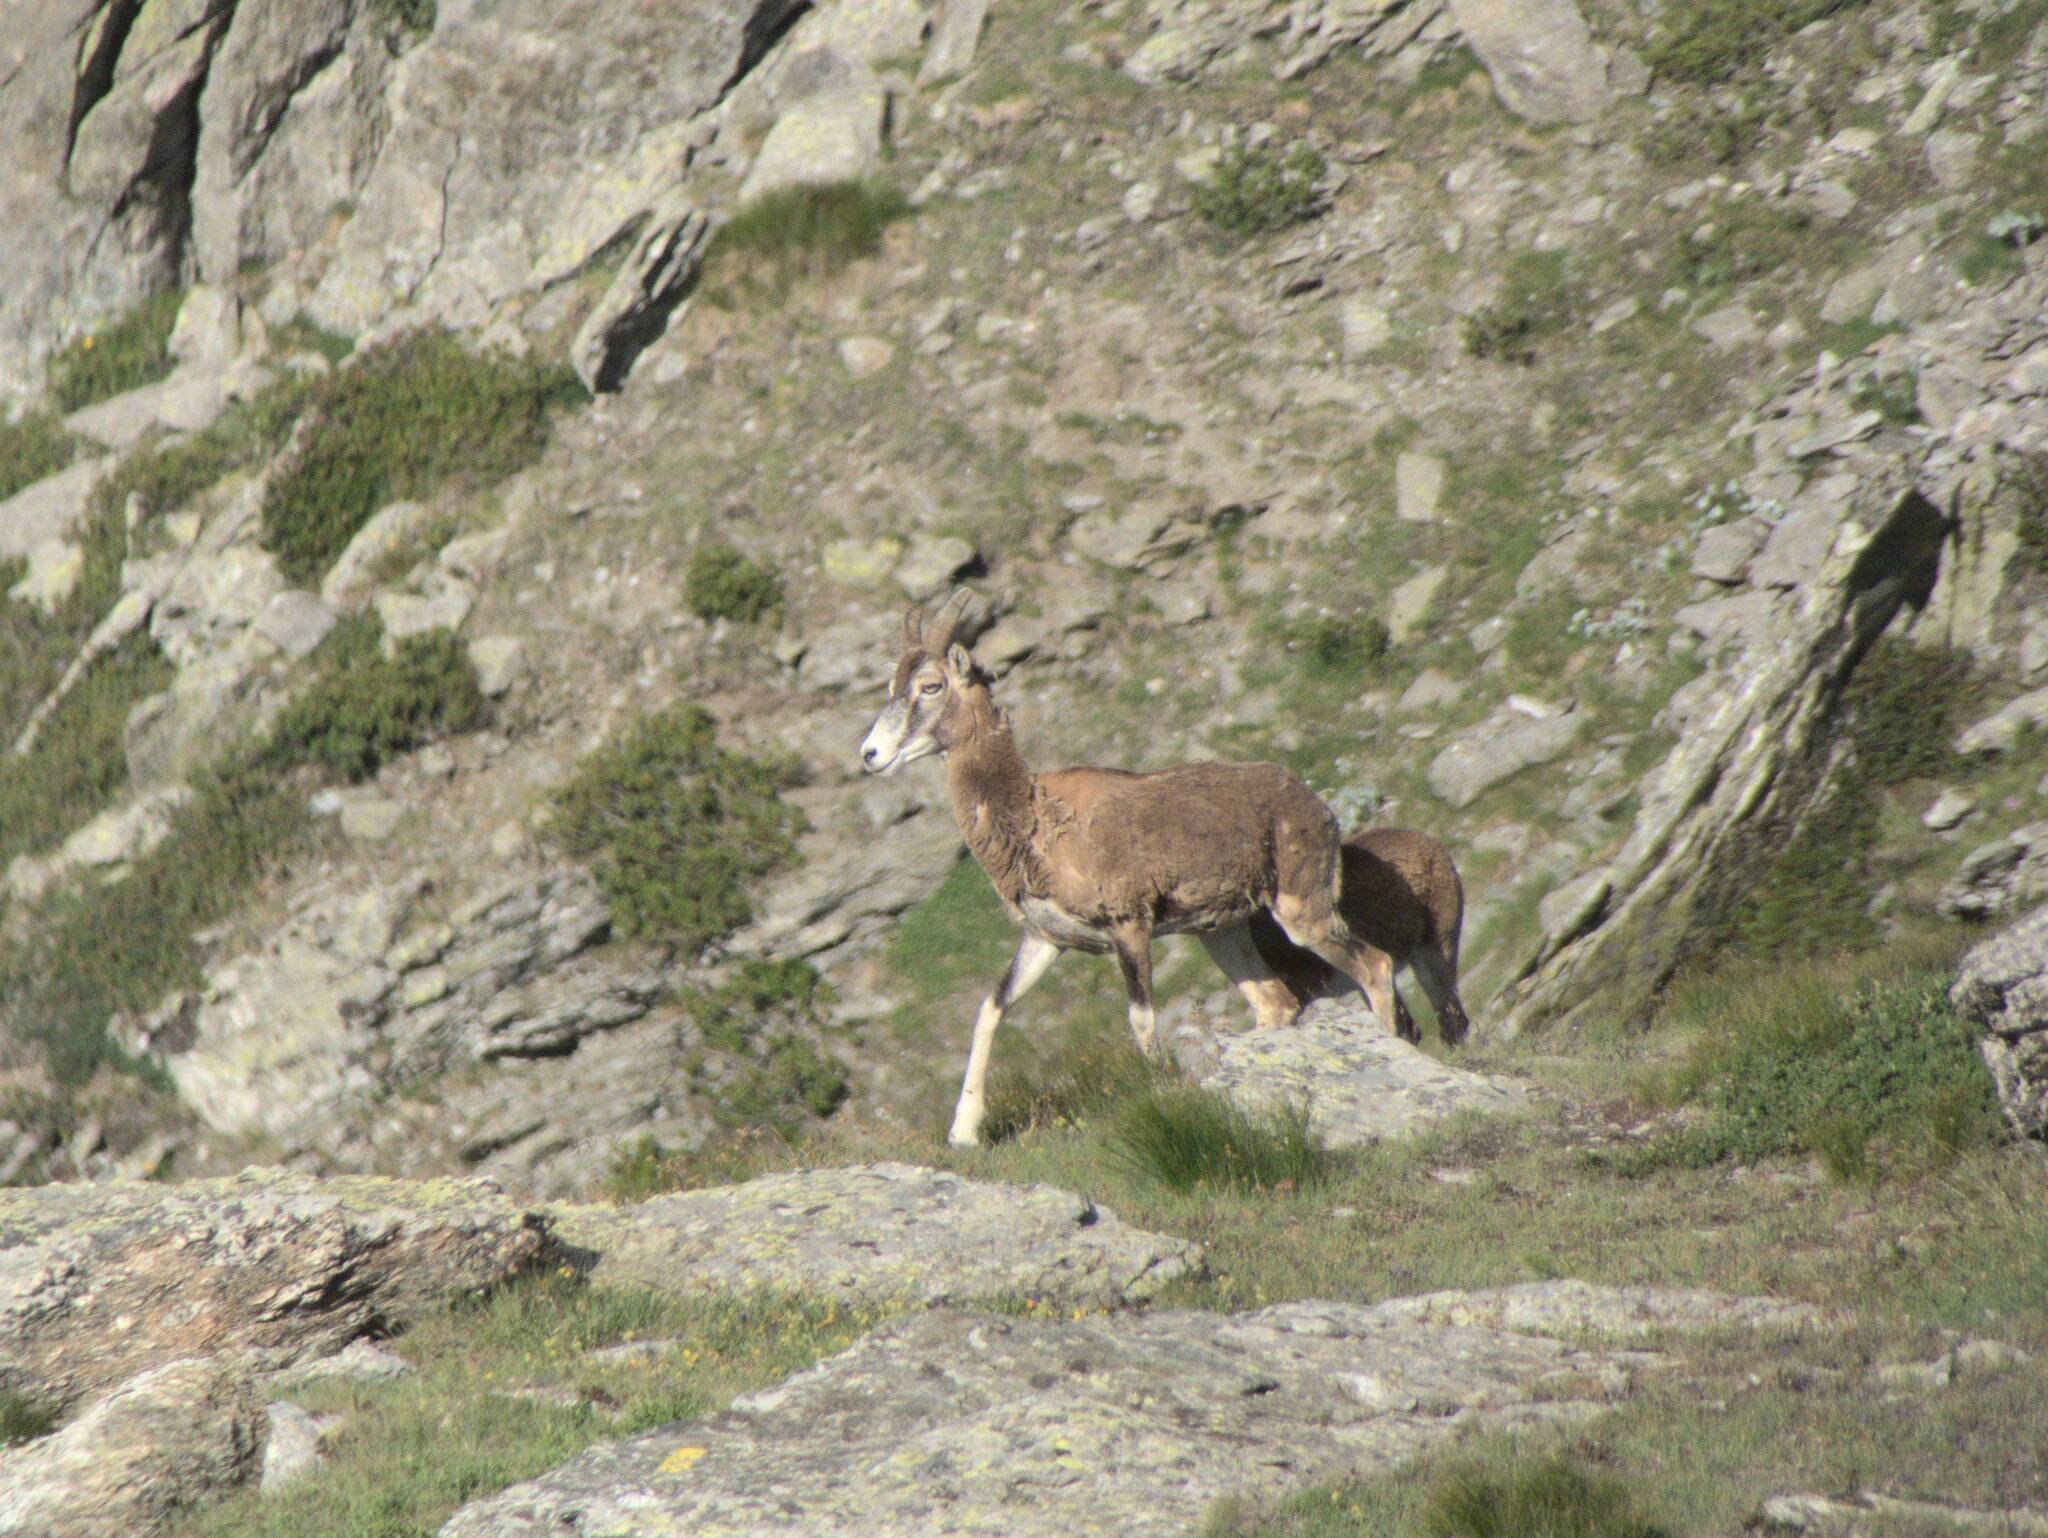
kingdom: Animalia
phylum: Chordata
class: Mammalia
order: Artiodactyla
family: Bovidae
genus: Ovis
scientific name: Ovis aries
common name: Domestic sheep
